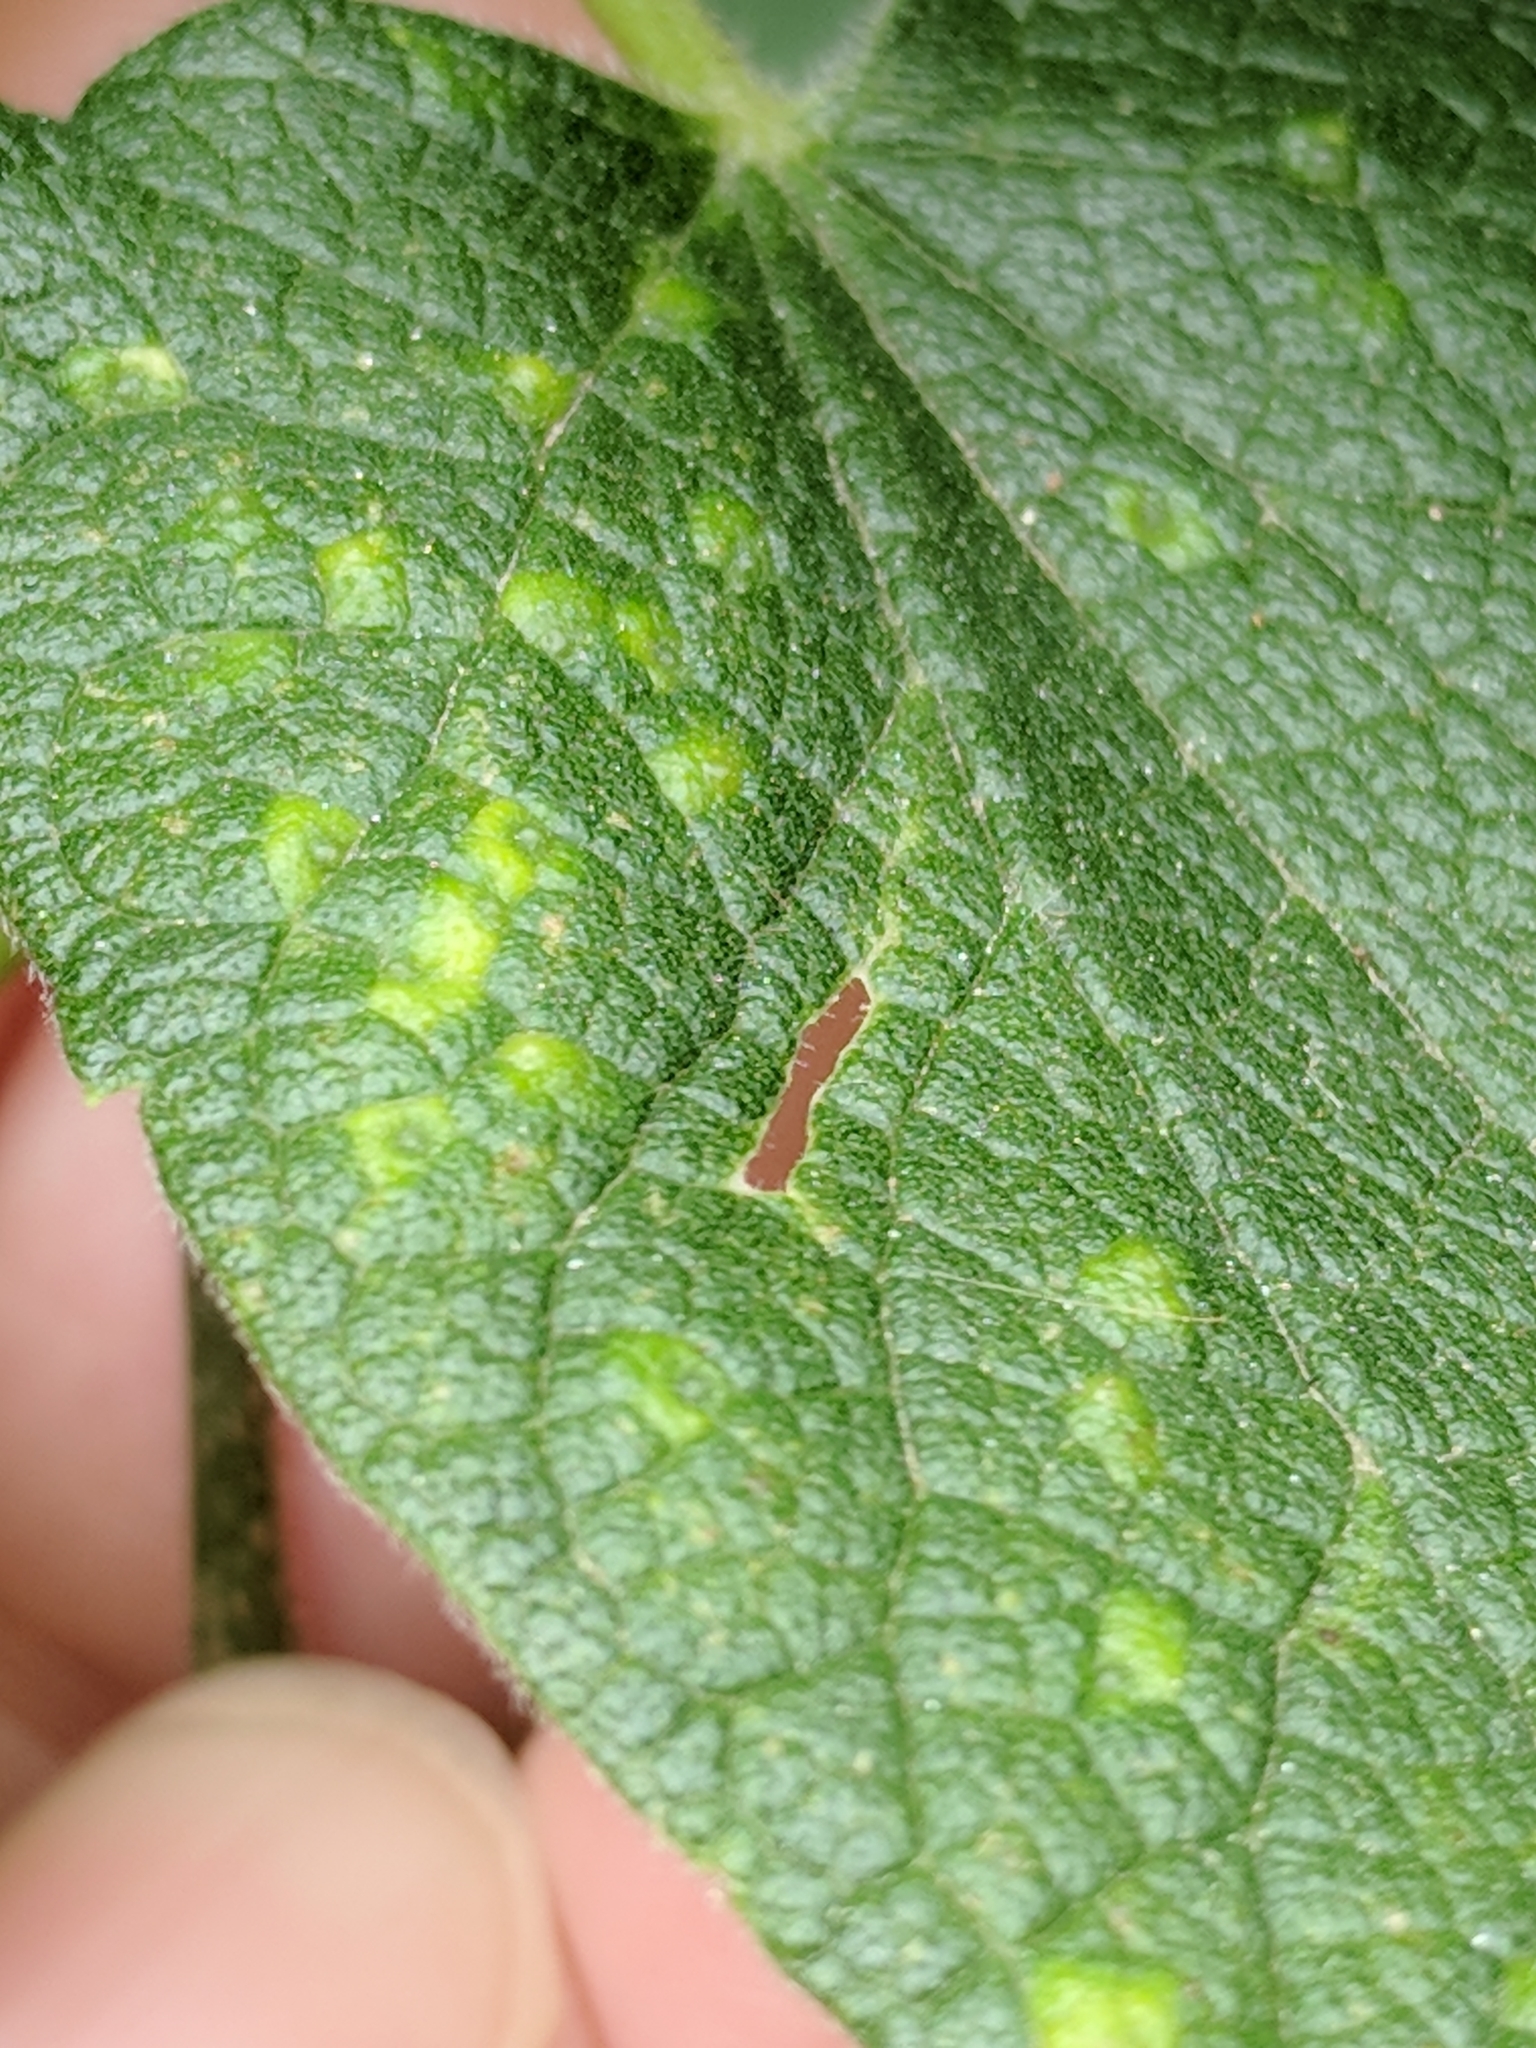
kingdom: Animalia
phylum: Arthropoda
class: Insecta
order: Diptera
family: Cecidomyiidae
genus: Celticecis
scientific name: Celticecis spiniformis
